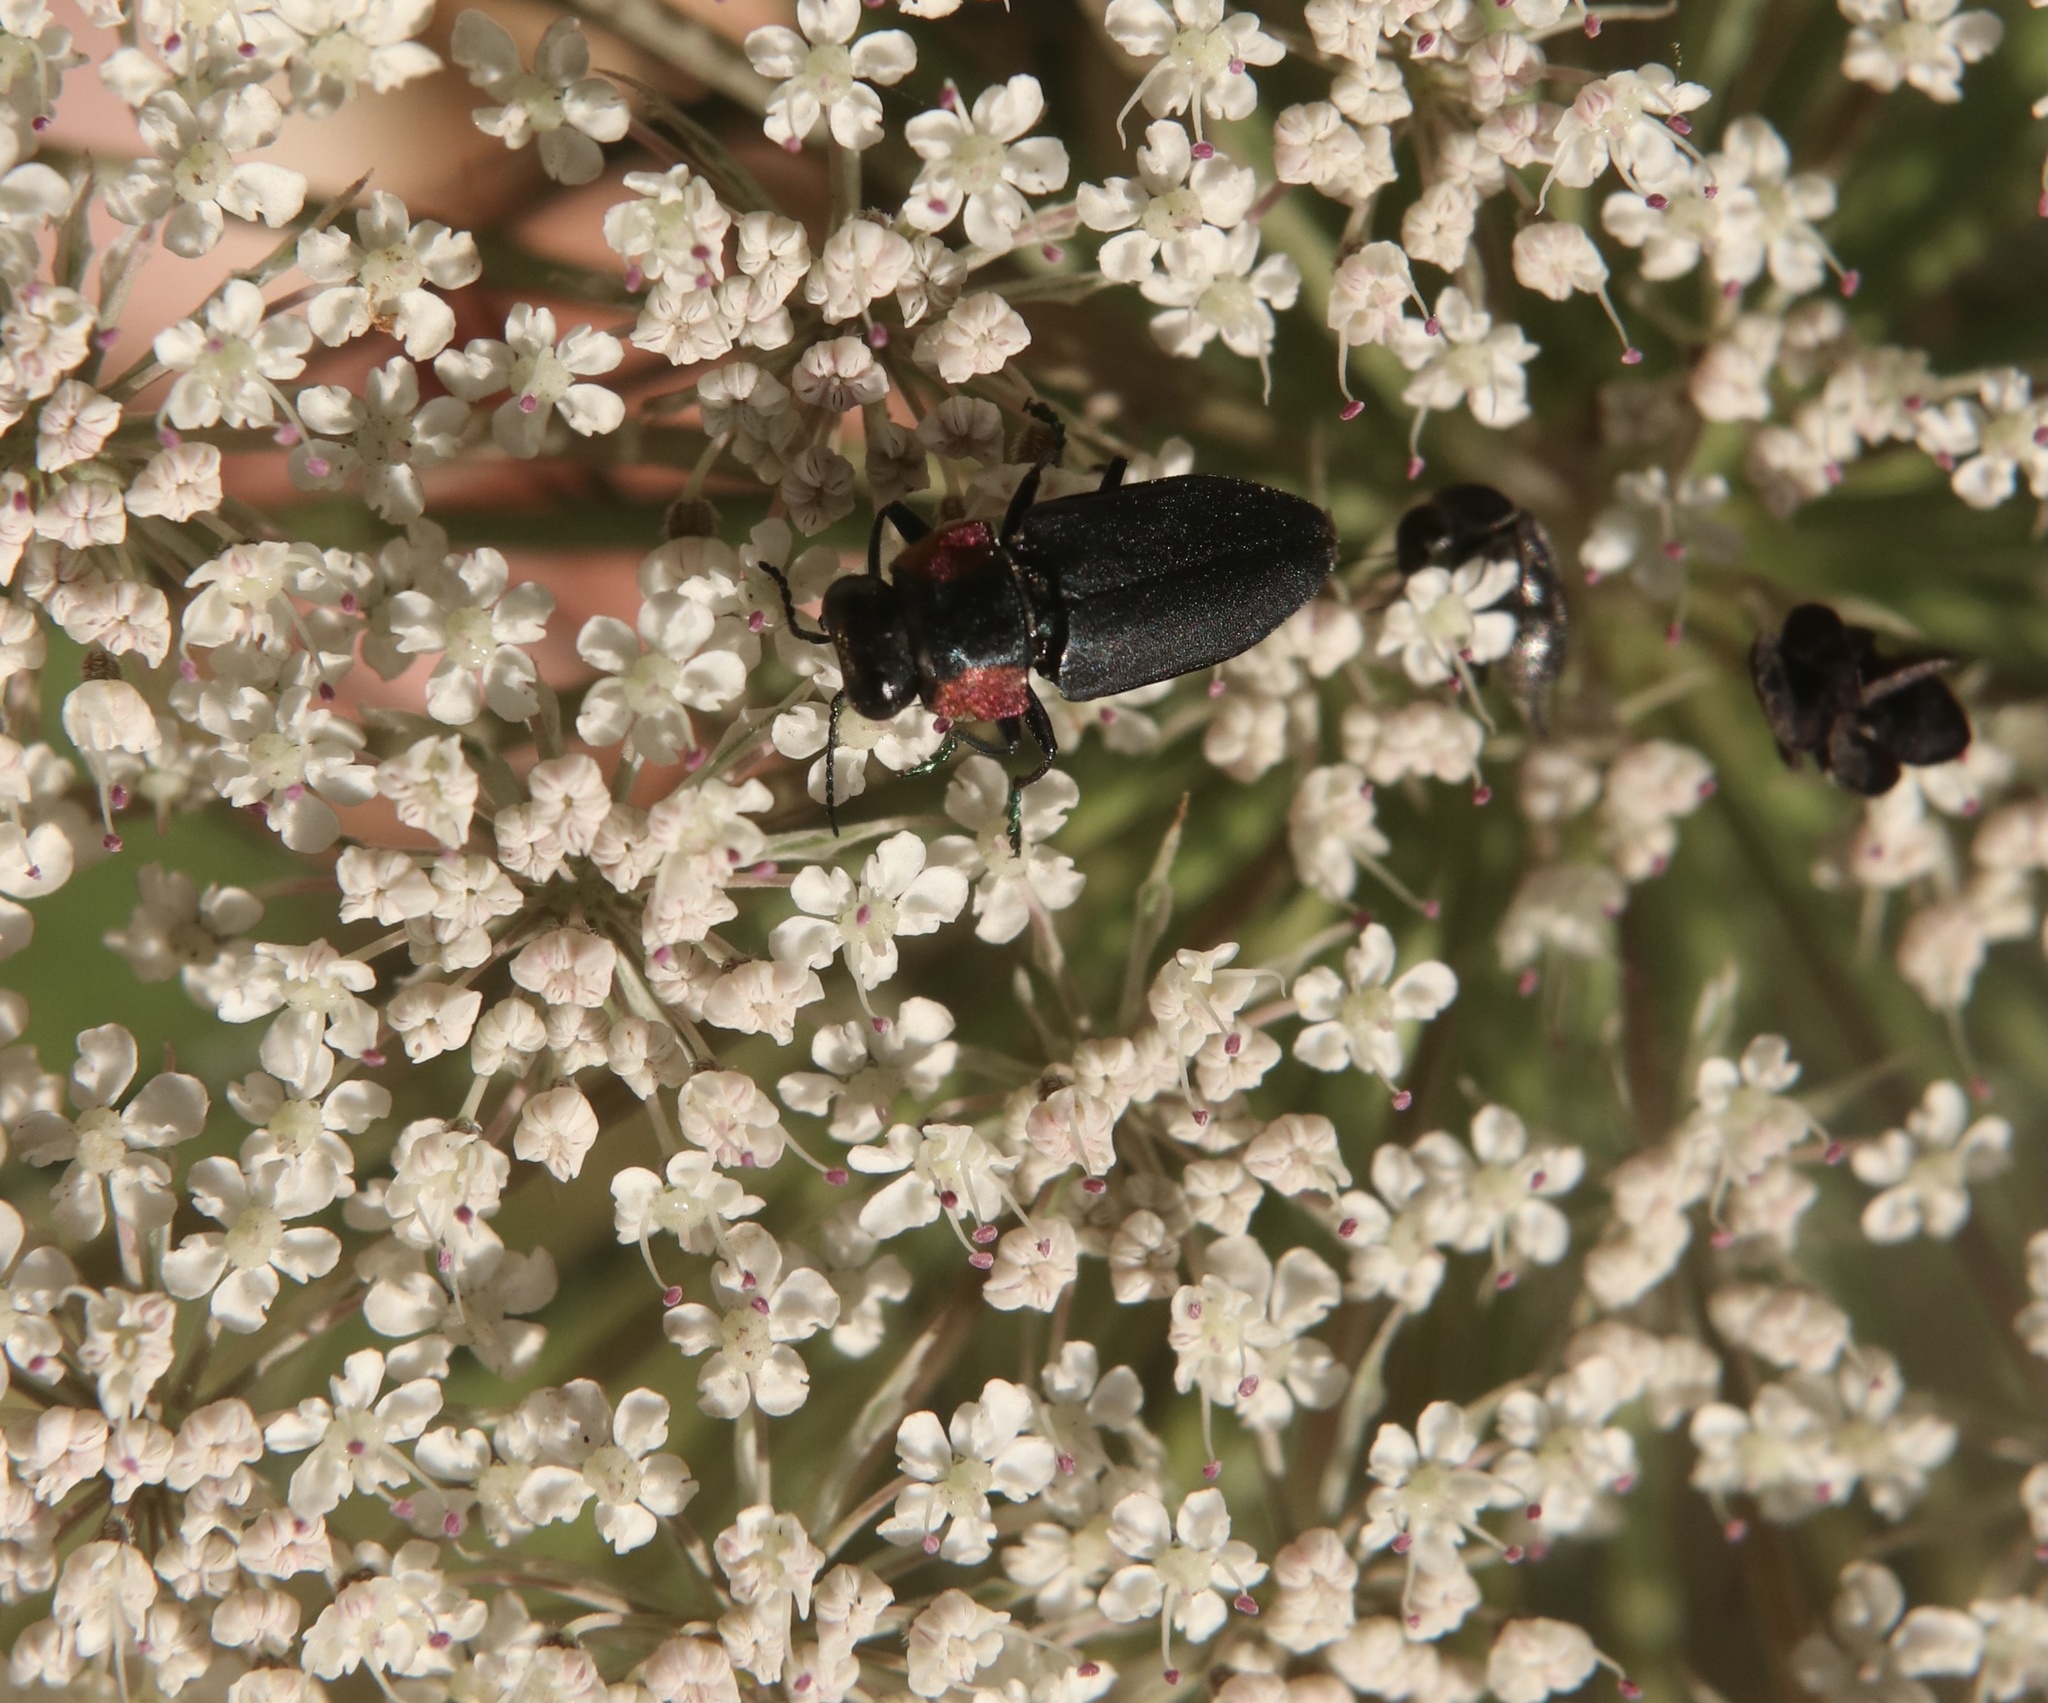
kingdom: Animalia
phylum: Arthropoda
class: Insecta
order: Coleoptera
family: Buprestidae
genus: Romanophora
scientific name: Romanophora verecunda
